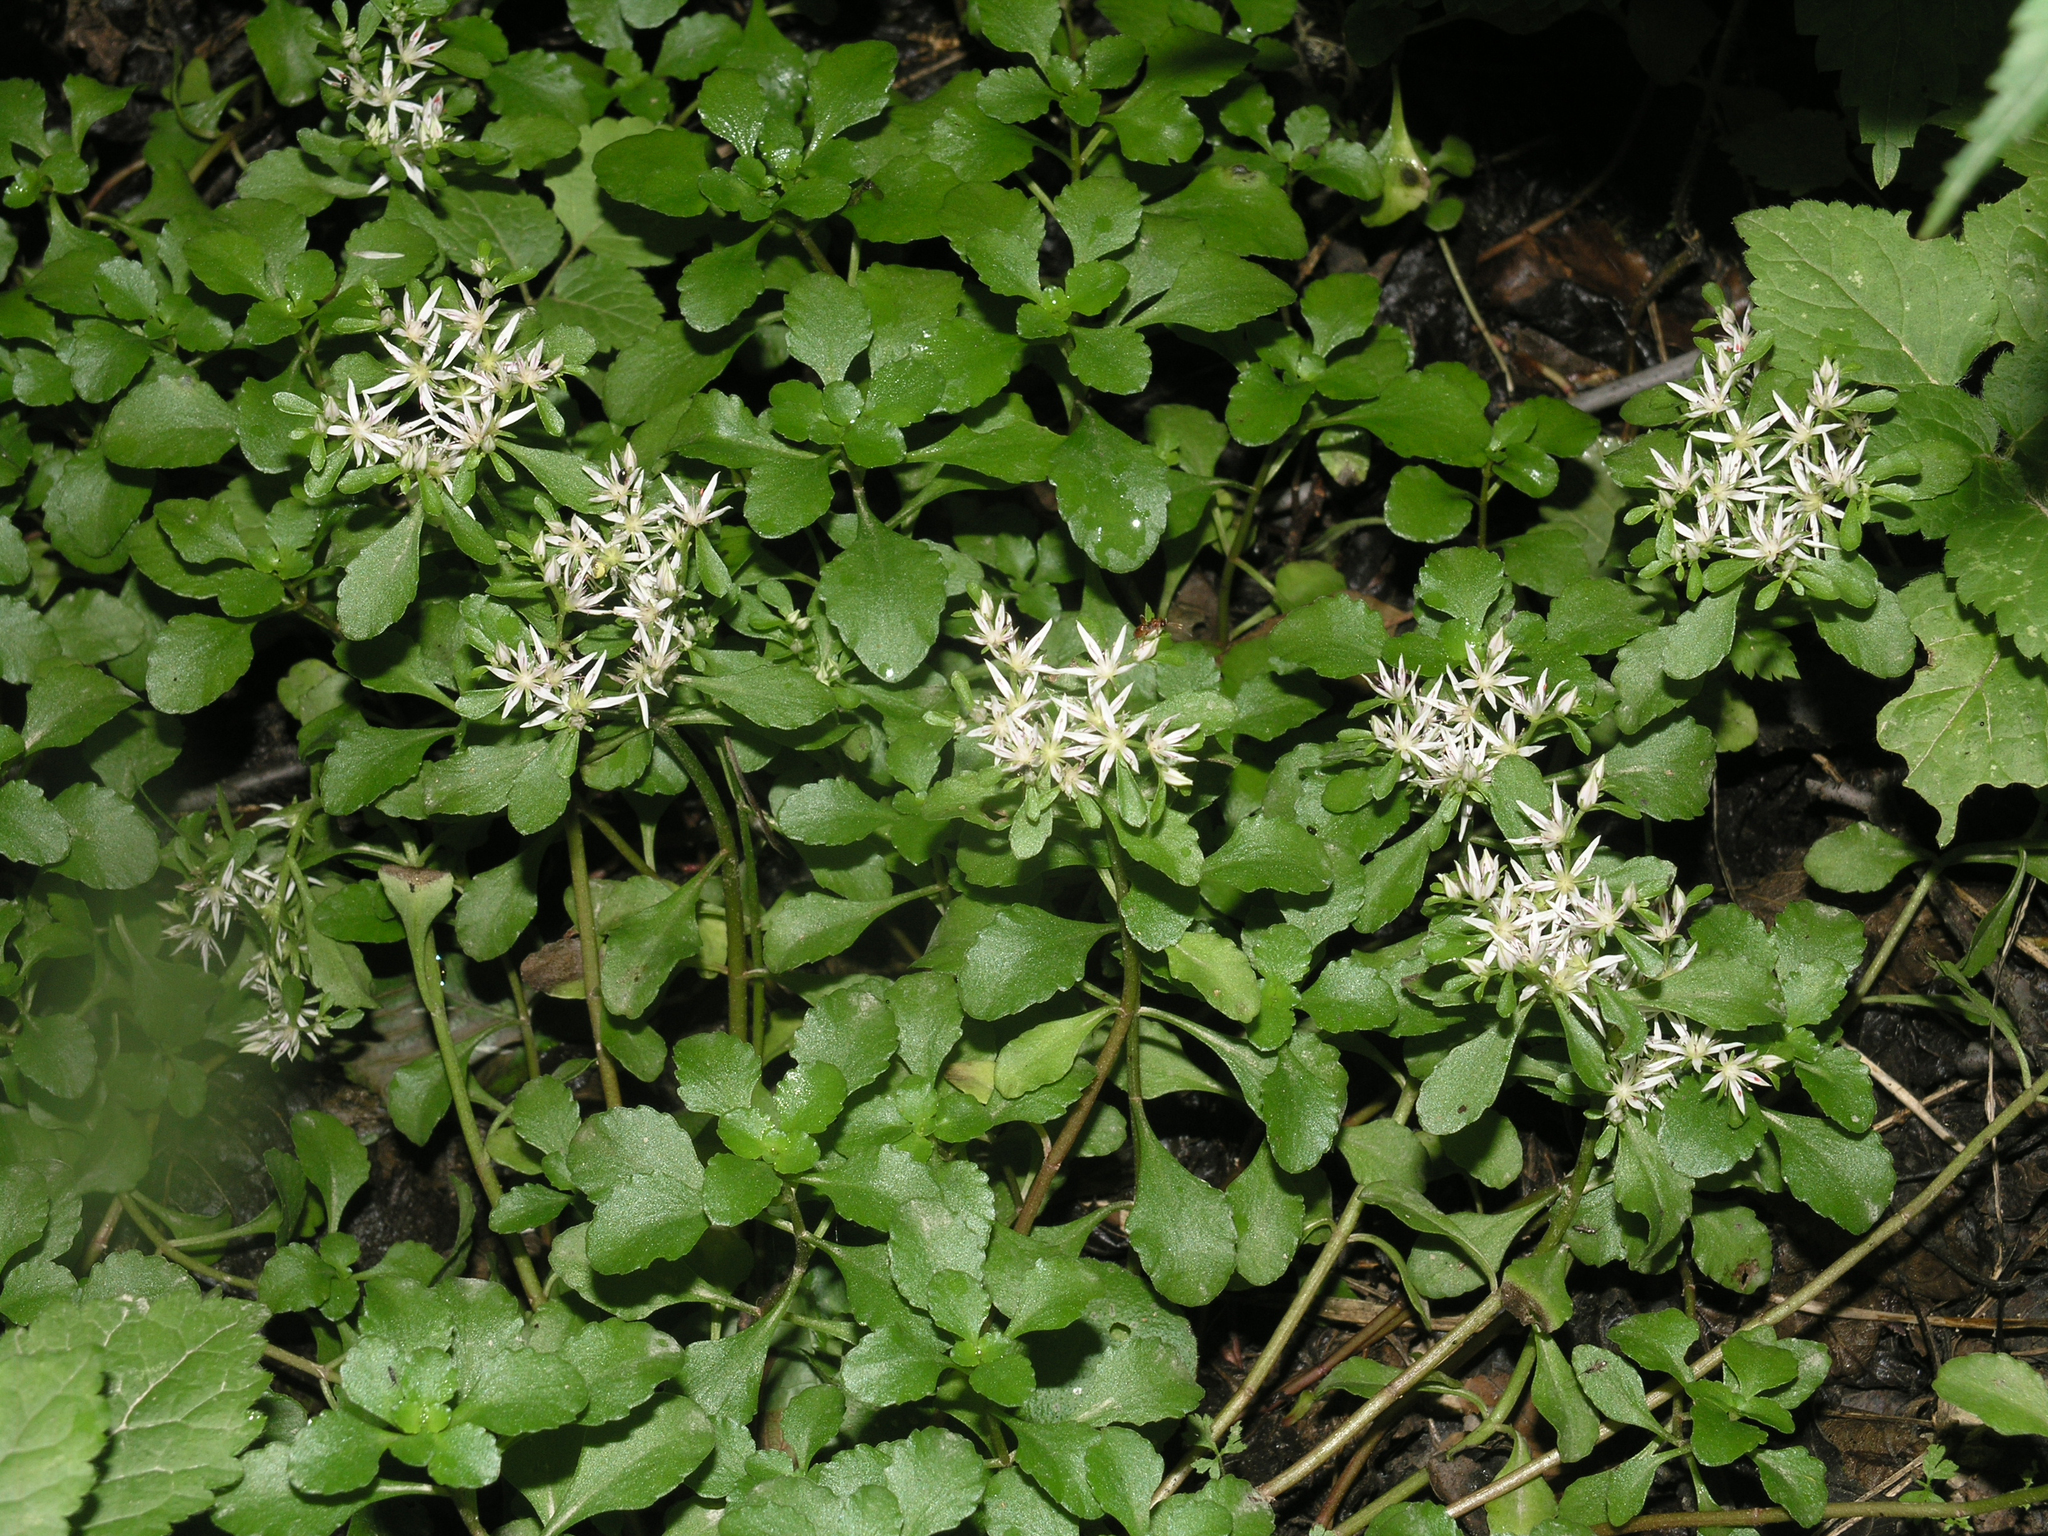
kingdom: Plantae
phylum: Tracheophyta
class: Magnoliopsida
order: Saxifragales
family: Crassulaceae
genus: Phedimus
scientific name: Phedimus stolonifer
